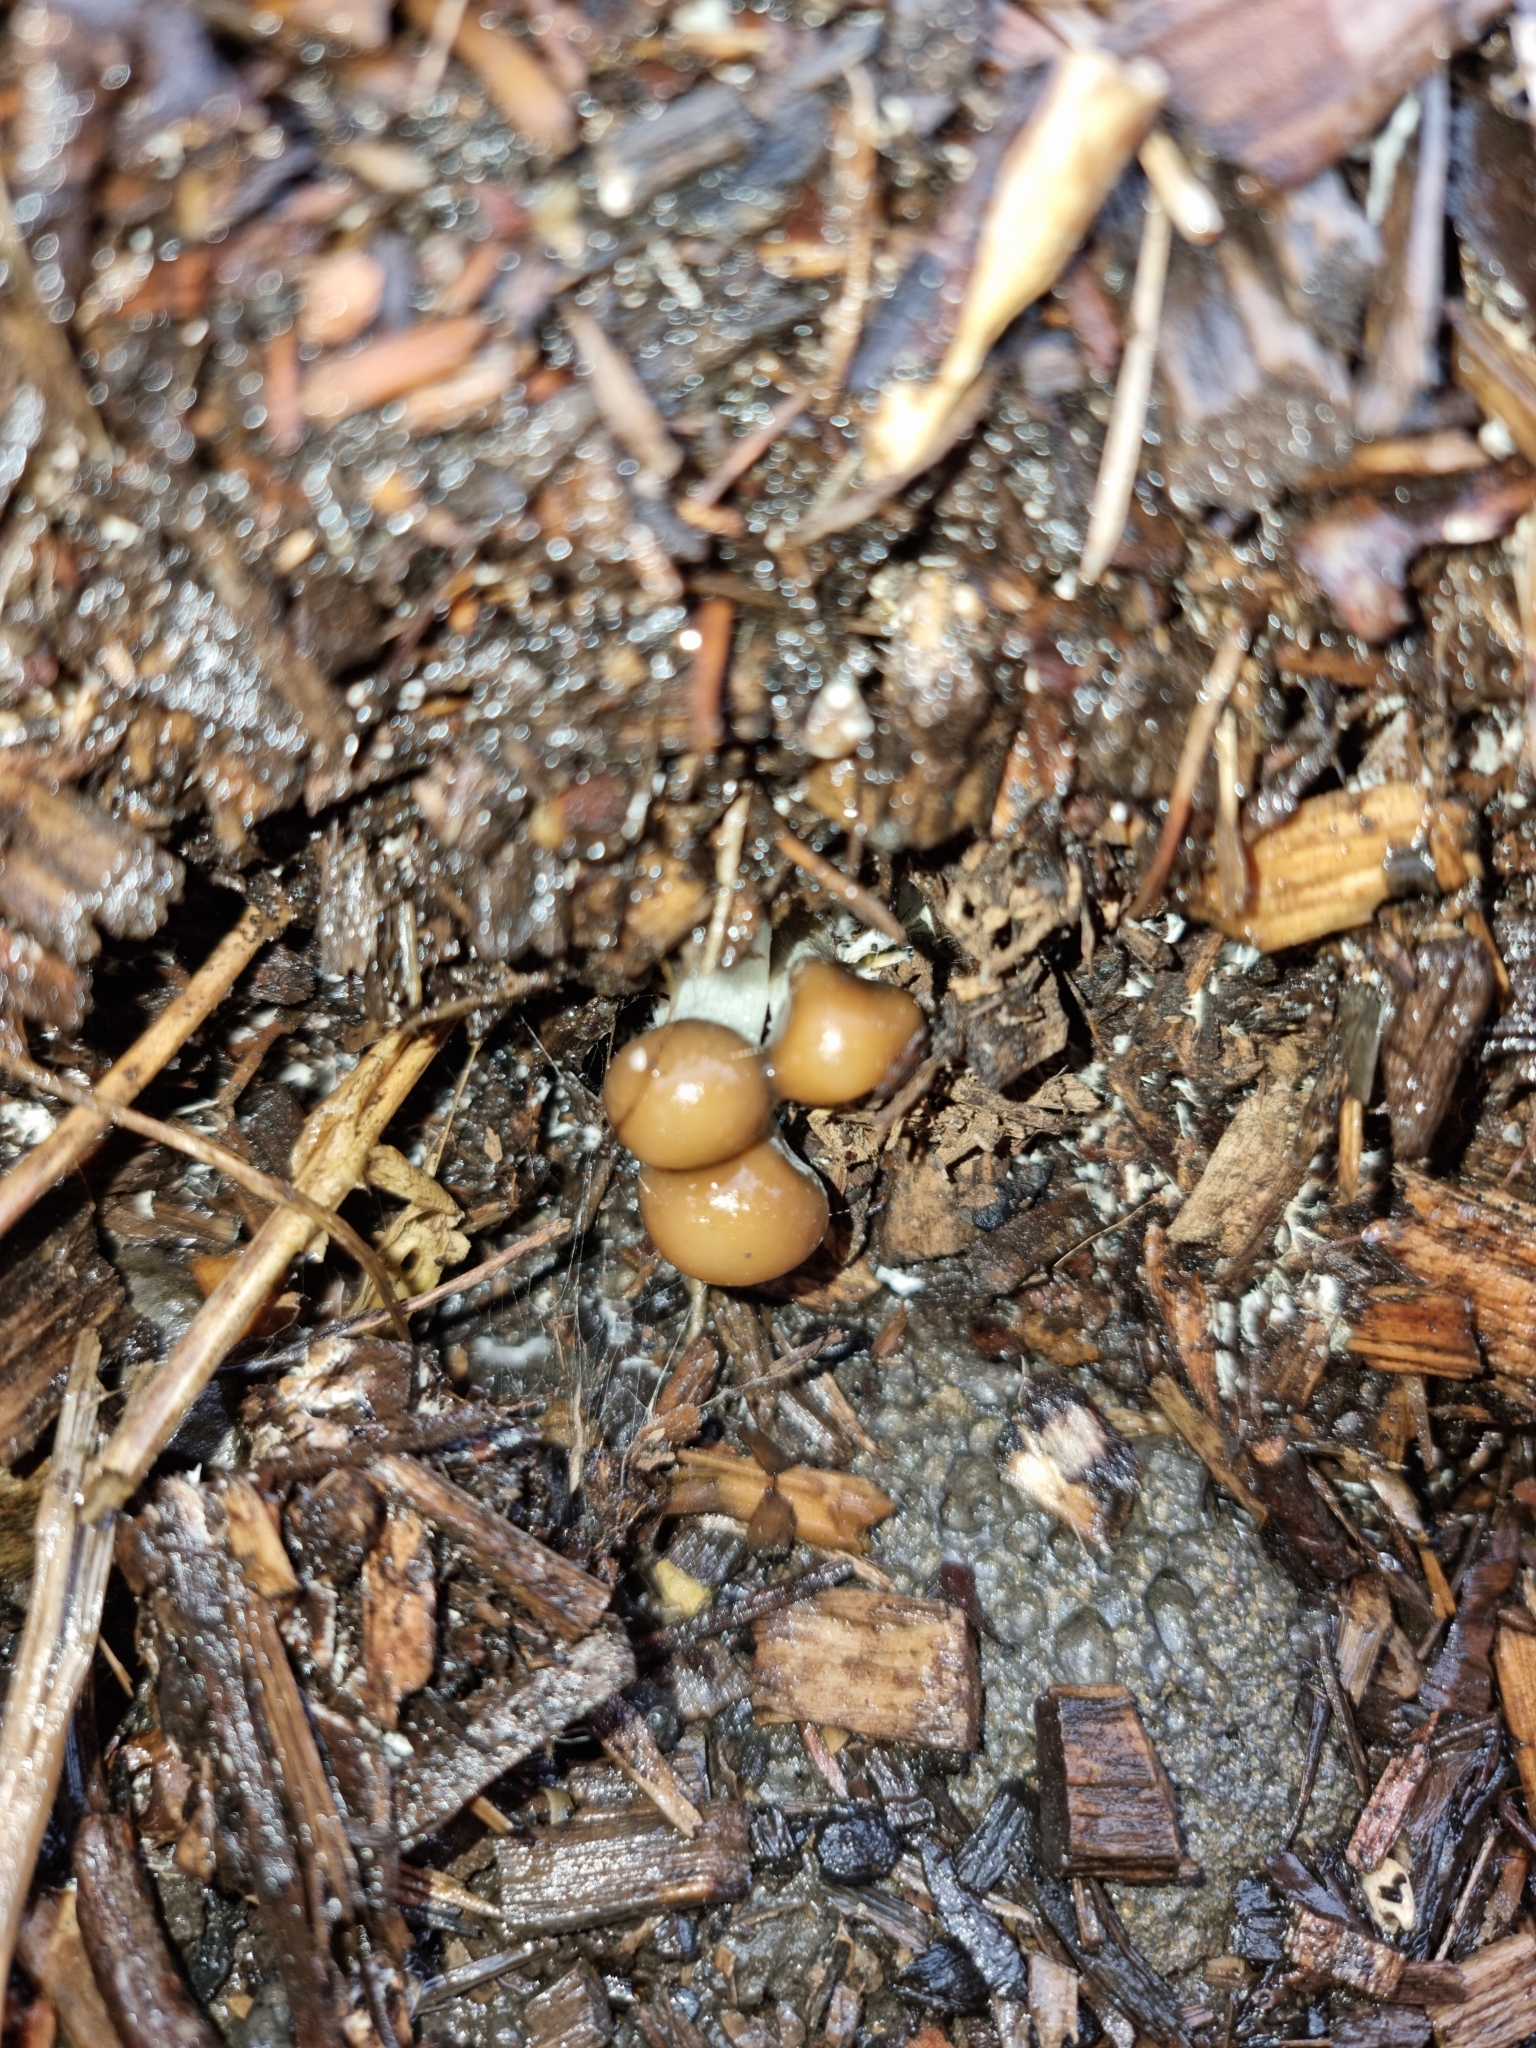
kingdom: Fungi
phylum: Basidiomycota
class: Agaricomycetes
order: Agaricales
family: Hymenogastraceae
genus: Psilocybe
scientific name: Psilocybe subaeruginosa
